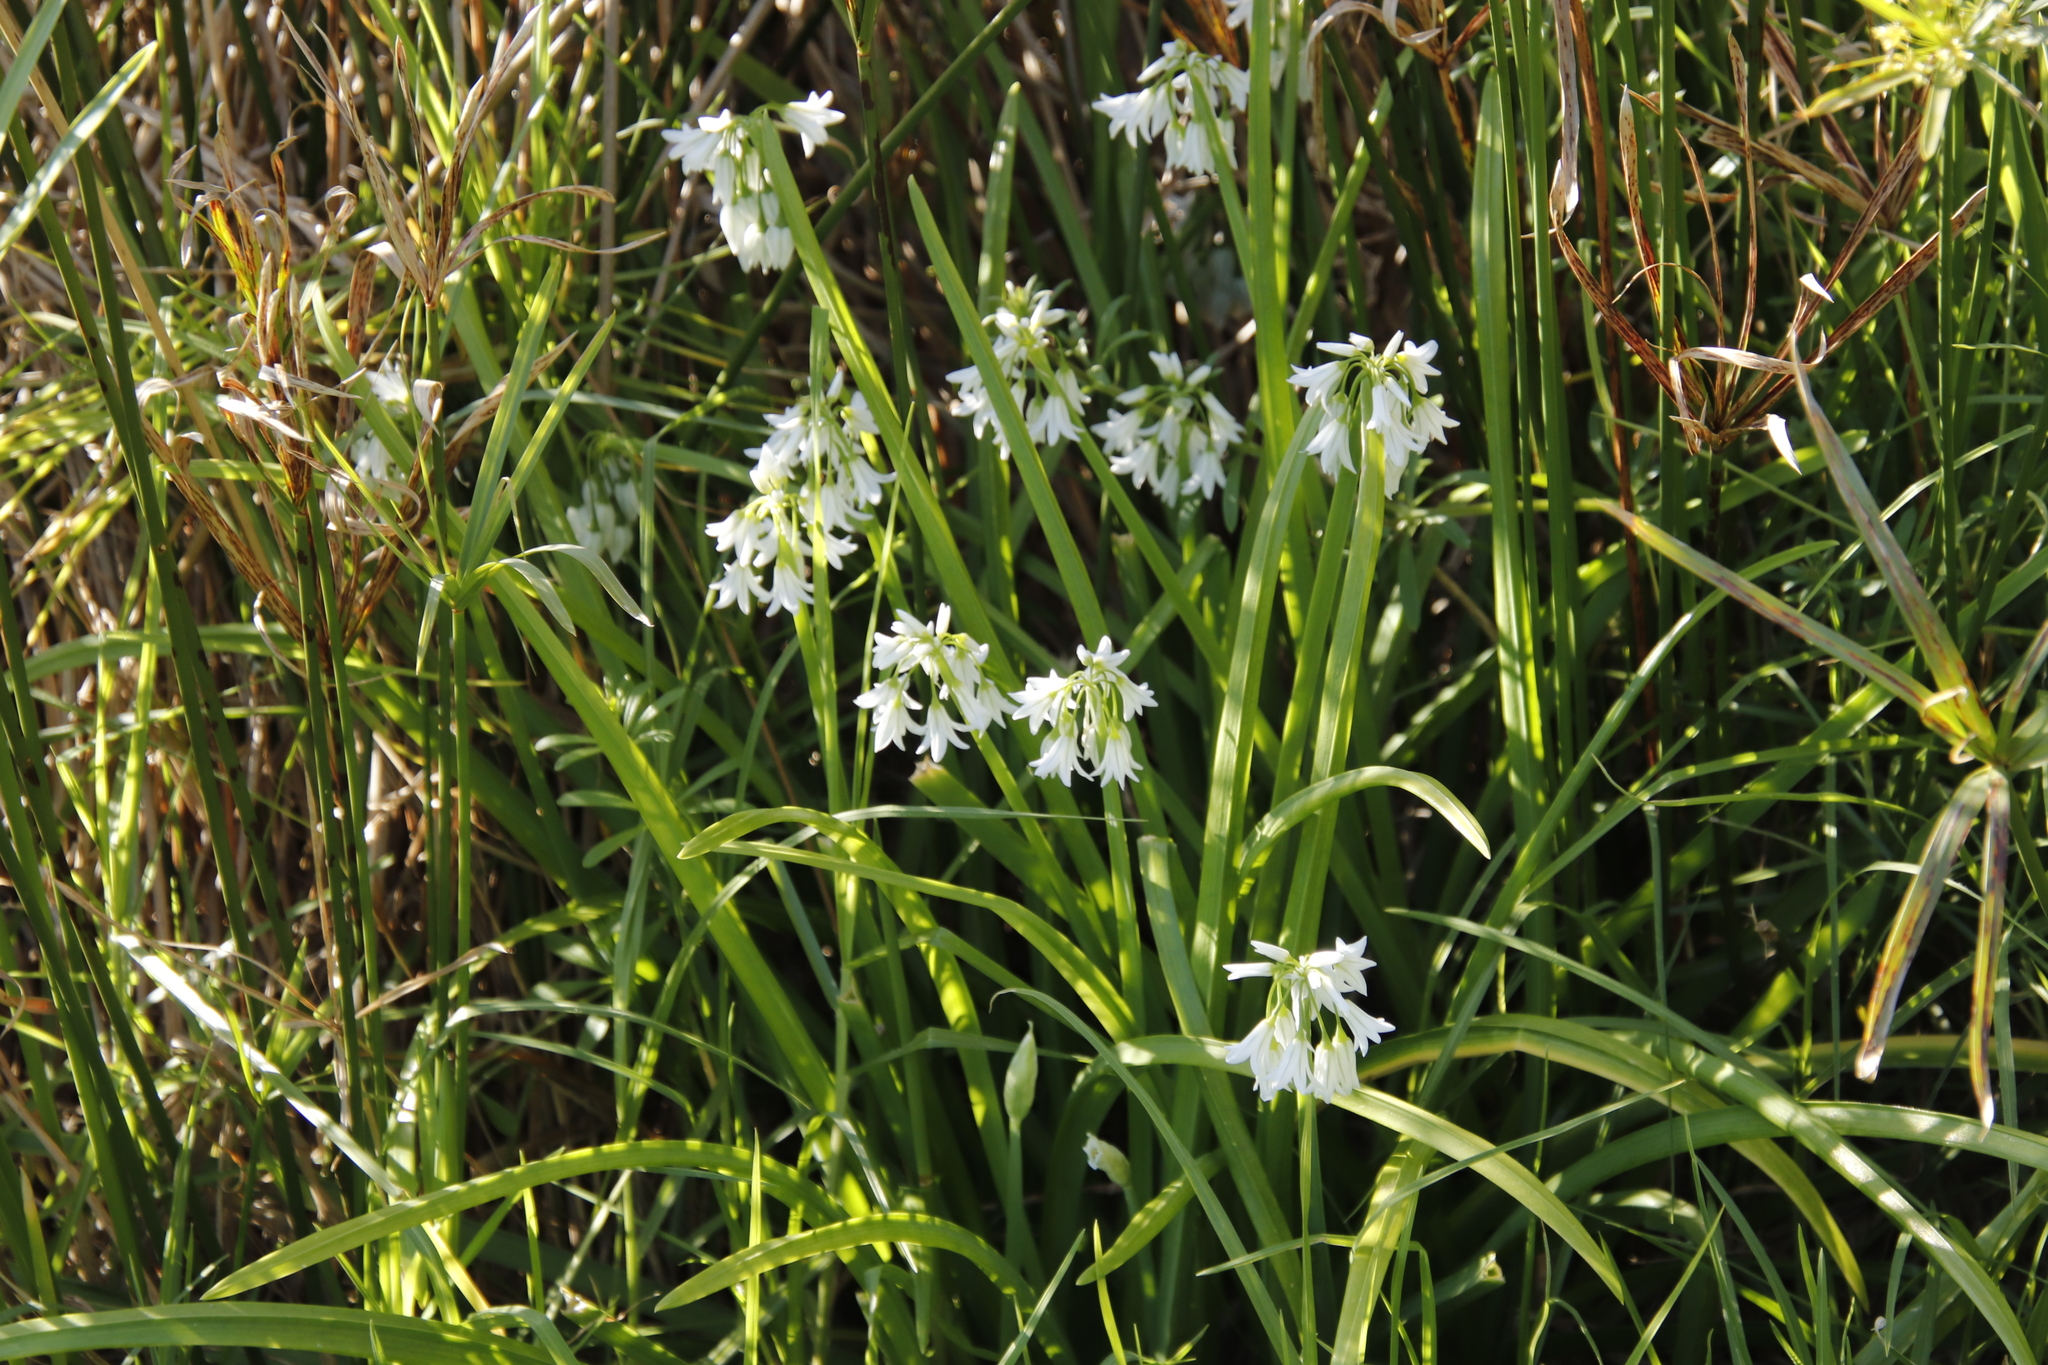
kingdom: Plantae
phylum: Tracheophyta
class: Liliopsida
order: Asparagales
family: Amaryllidaceae
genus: Allium
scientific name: Allium triquetrum
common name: Three-cornered garlic
